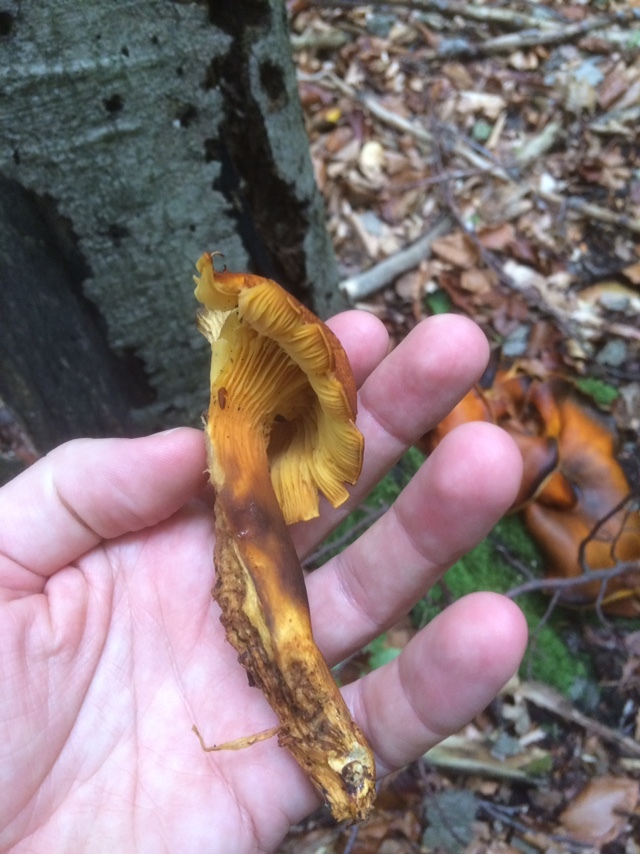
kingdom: Fungi
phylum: Basidiomycota
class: Agaricomycetes
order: Agaricales
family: Omphalotaceae
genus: Omphalotus
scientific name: Omphalotus olearius
